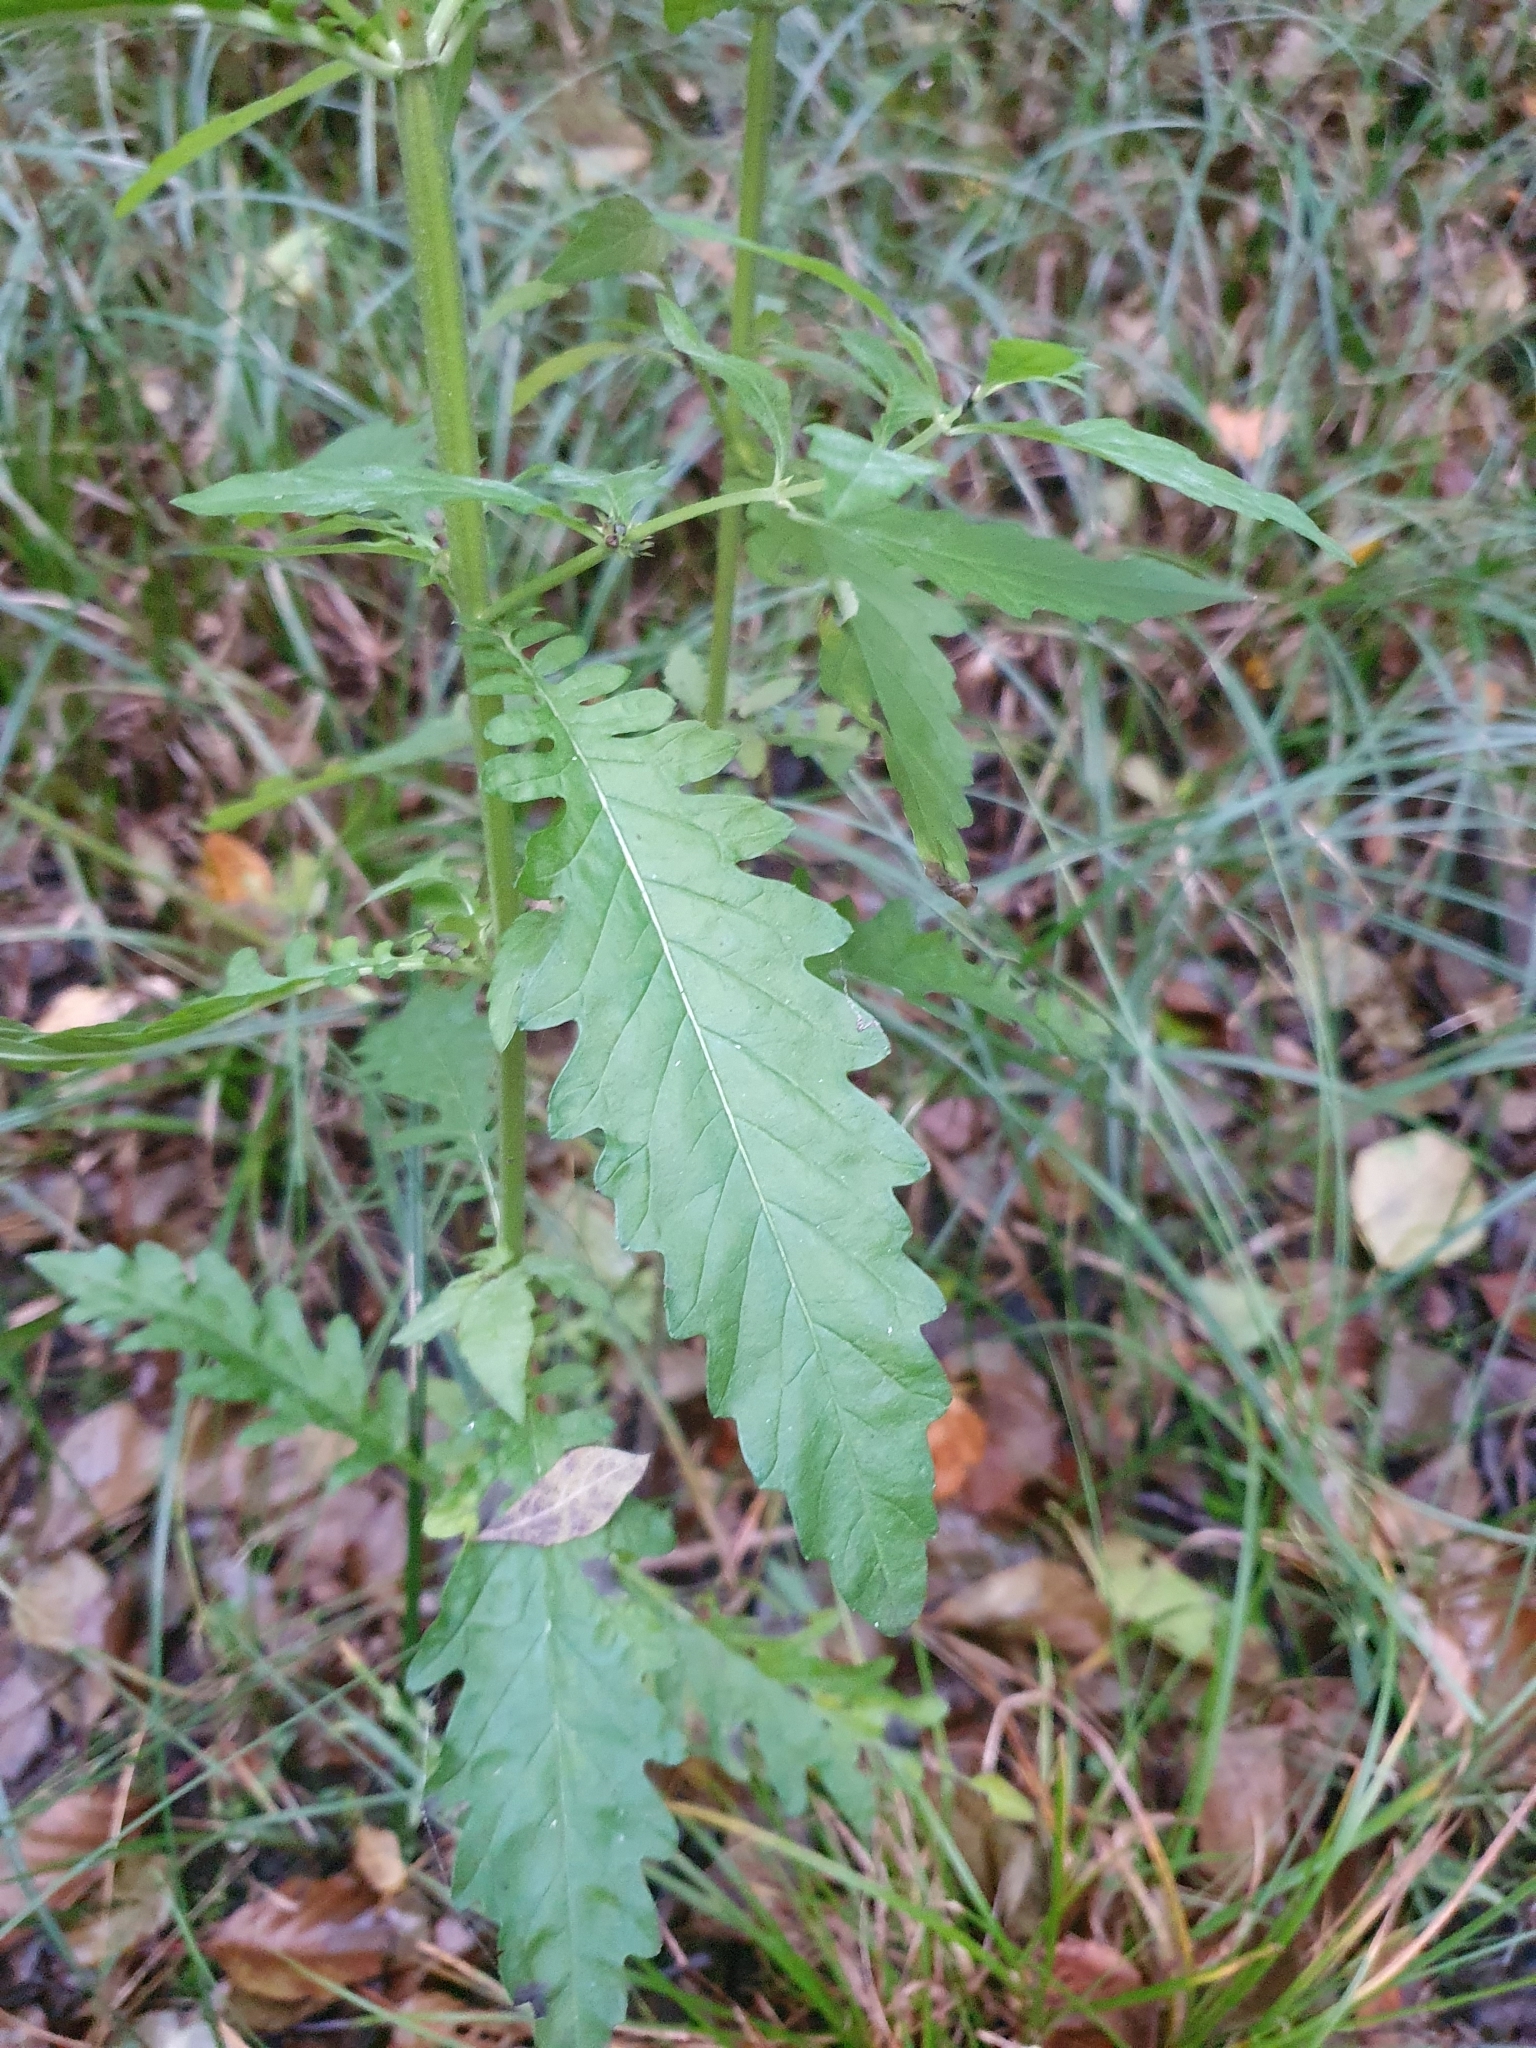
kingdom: Plantae
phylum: Tracheophyta
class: Magnoliopsida
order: Lamiales
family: Lamiaceae
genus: Lycopus
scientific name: Lycopus europaeus
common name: European bugleweed
